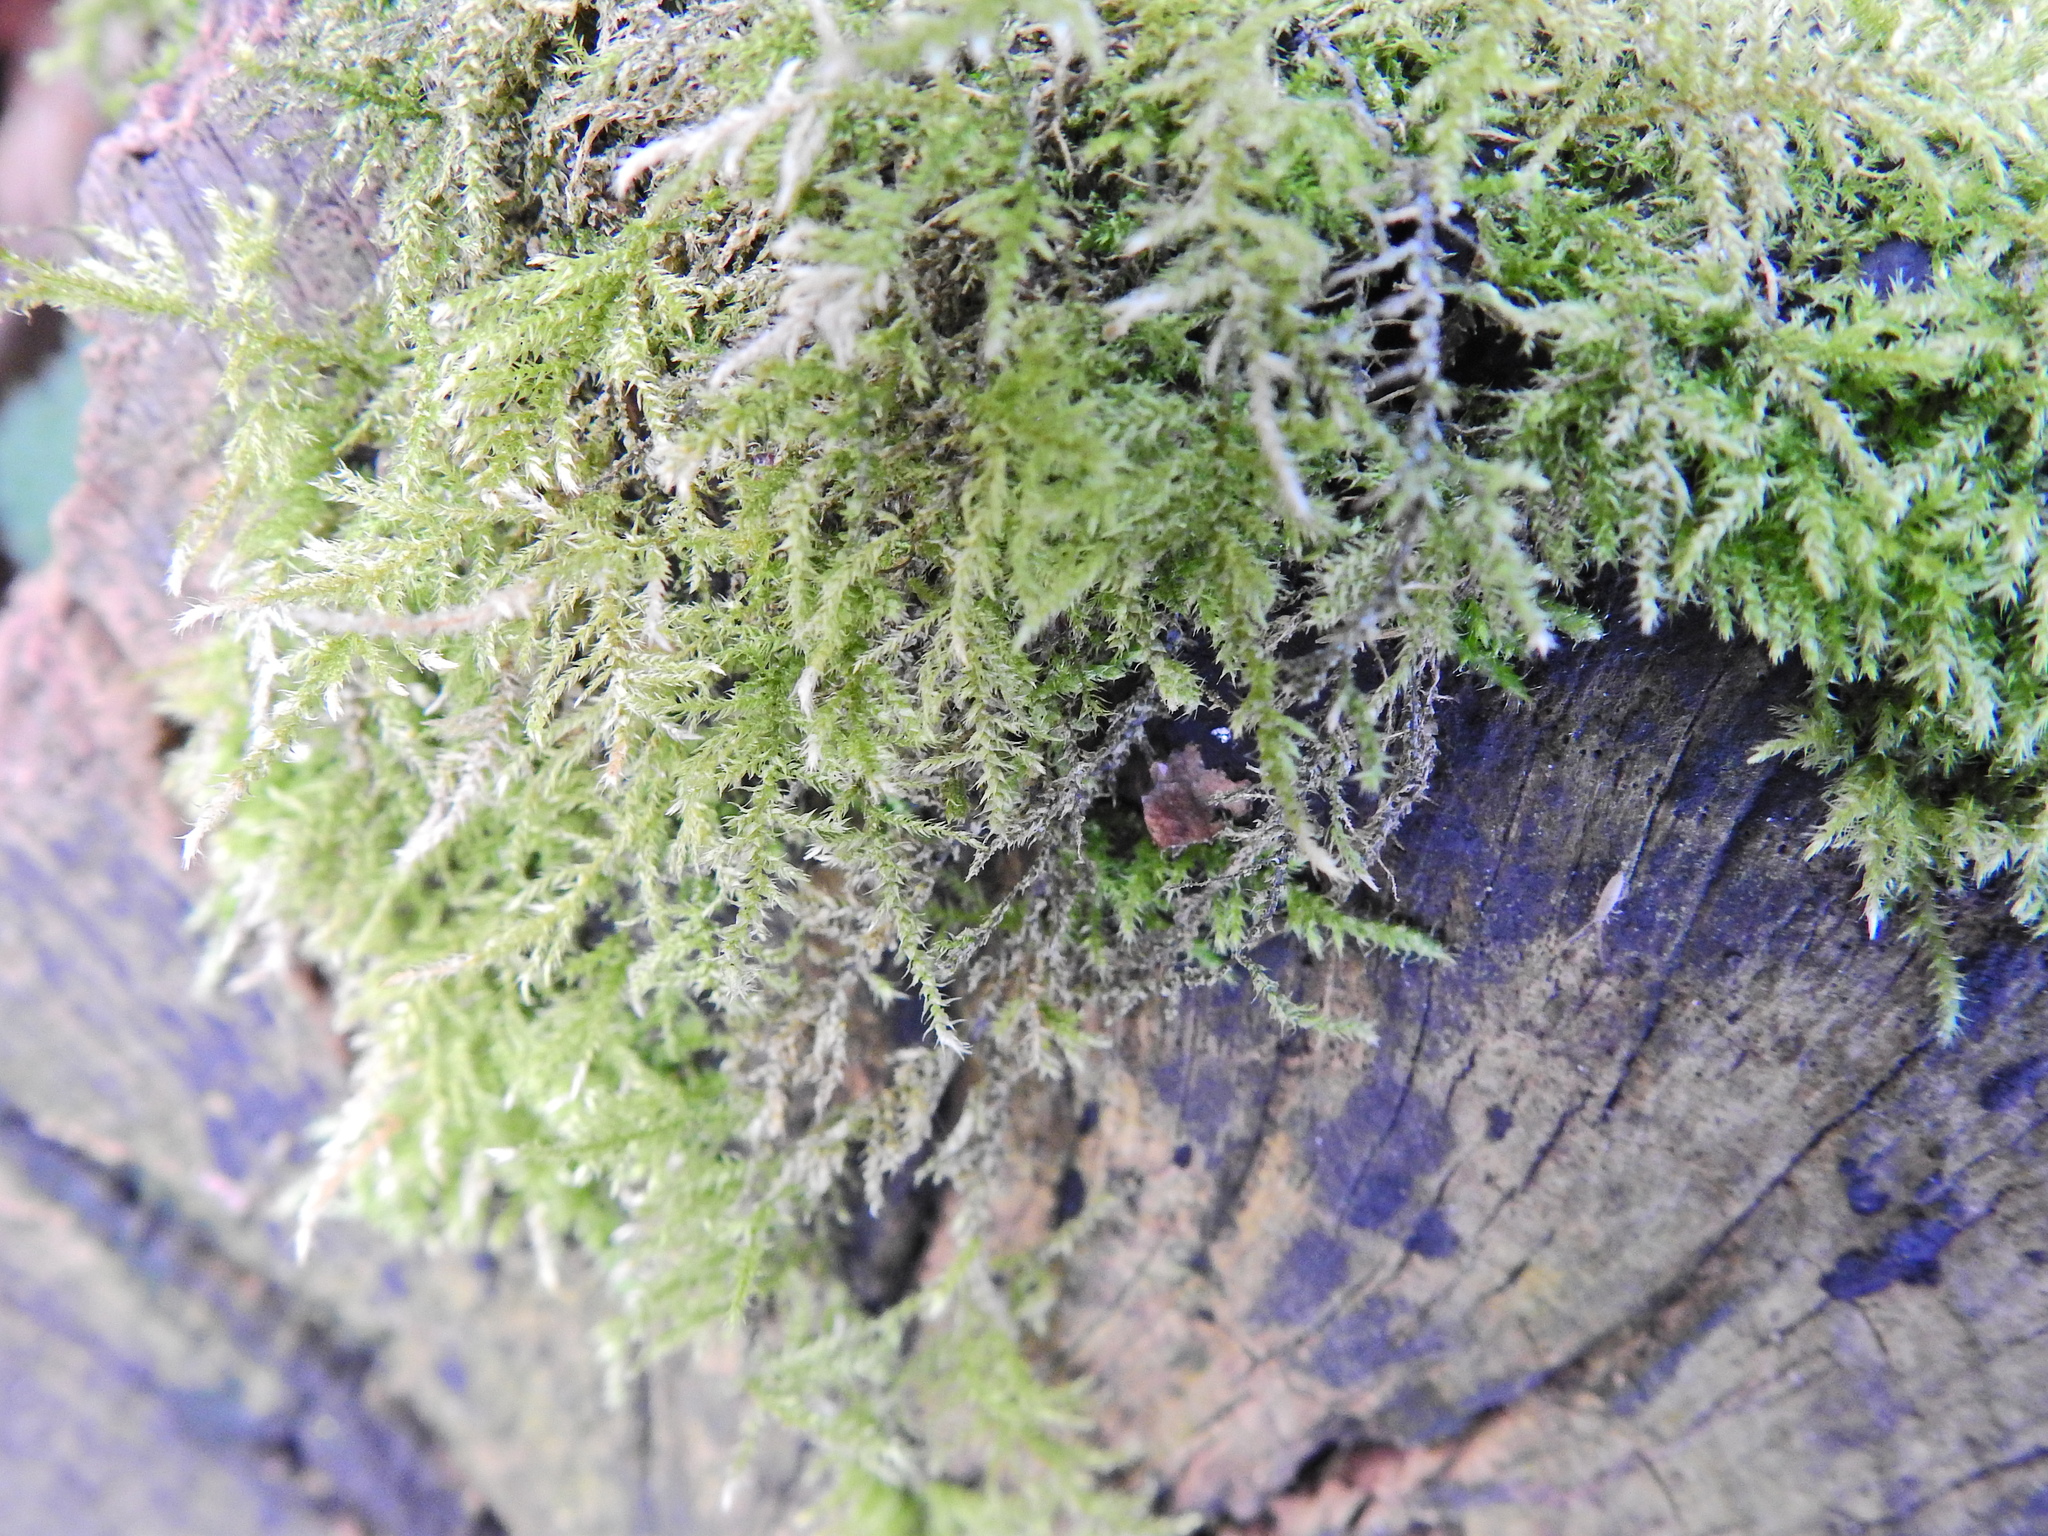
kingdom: Plantae
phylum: Bryophyta
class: Bryopsida
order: Hypnales
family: Brachytheciaceae
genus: Kindbergia
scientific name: Kindbergia praelonga
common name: Slender beaked moss
